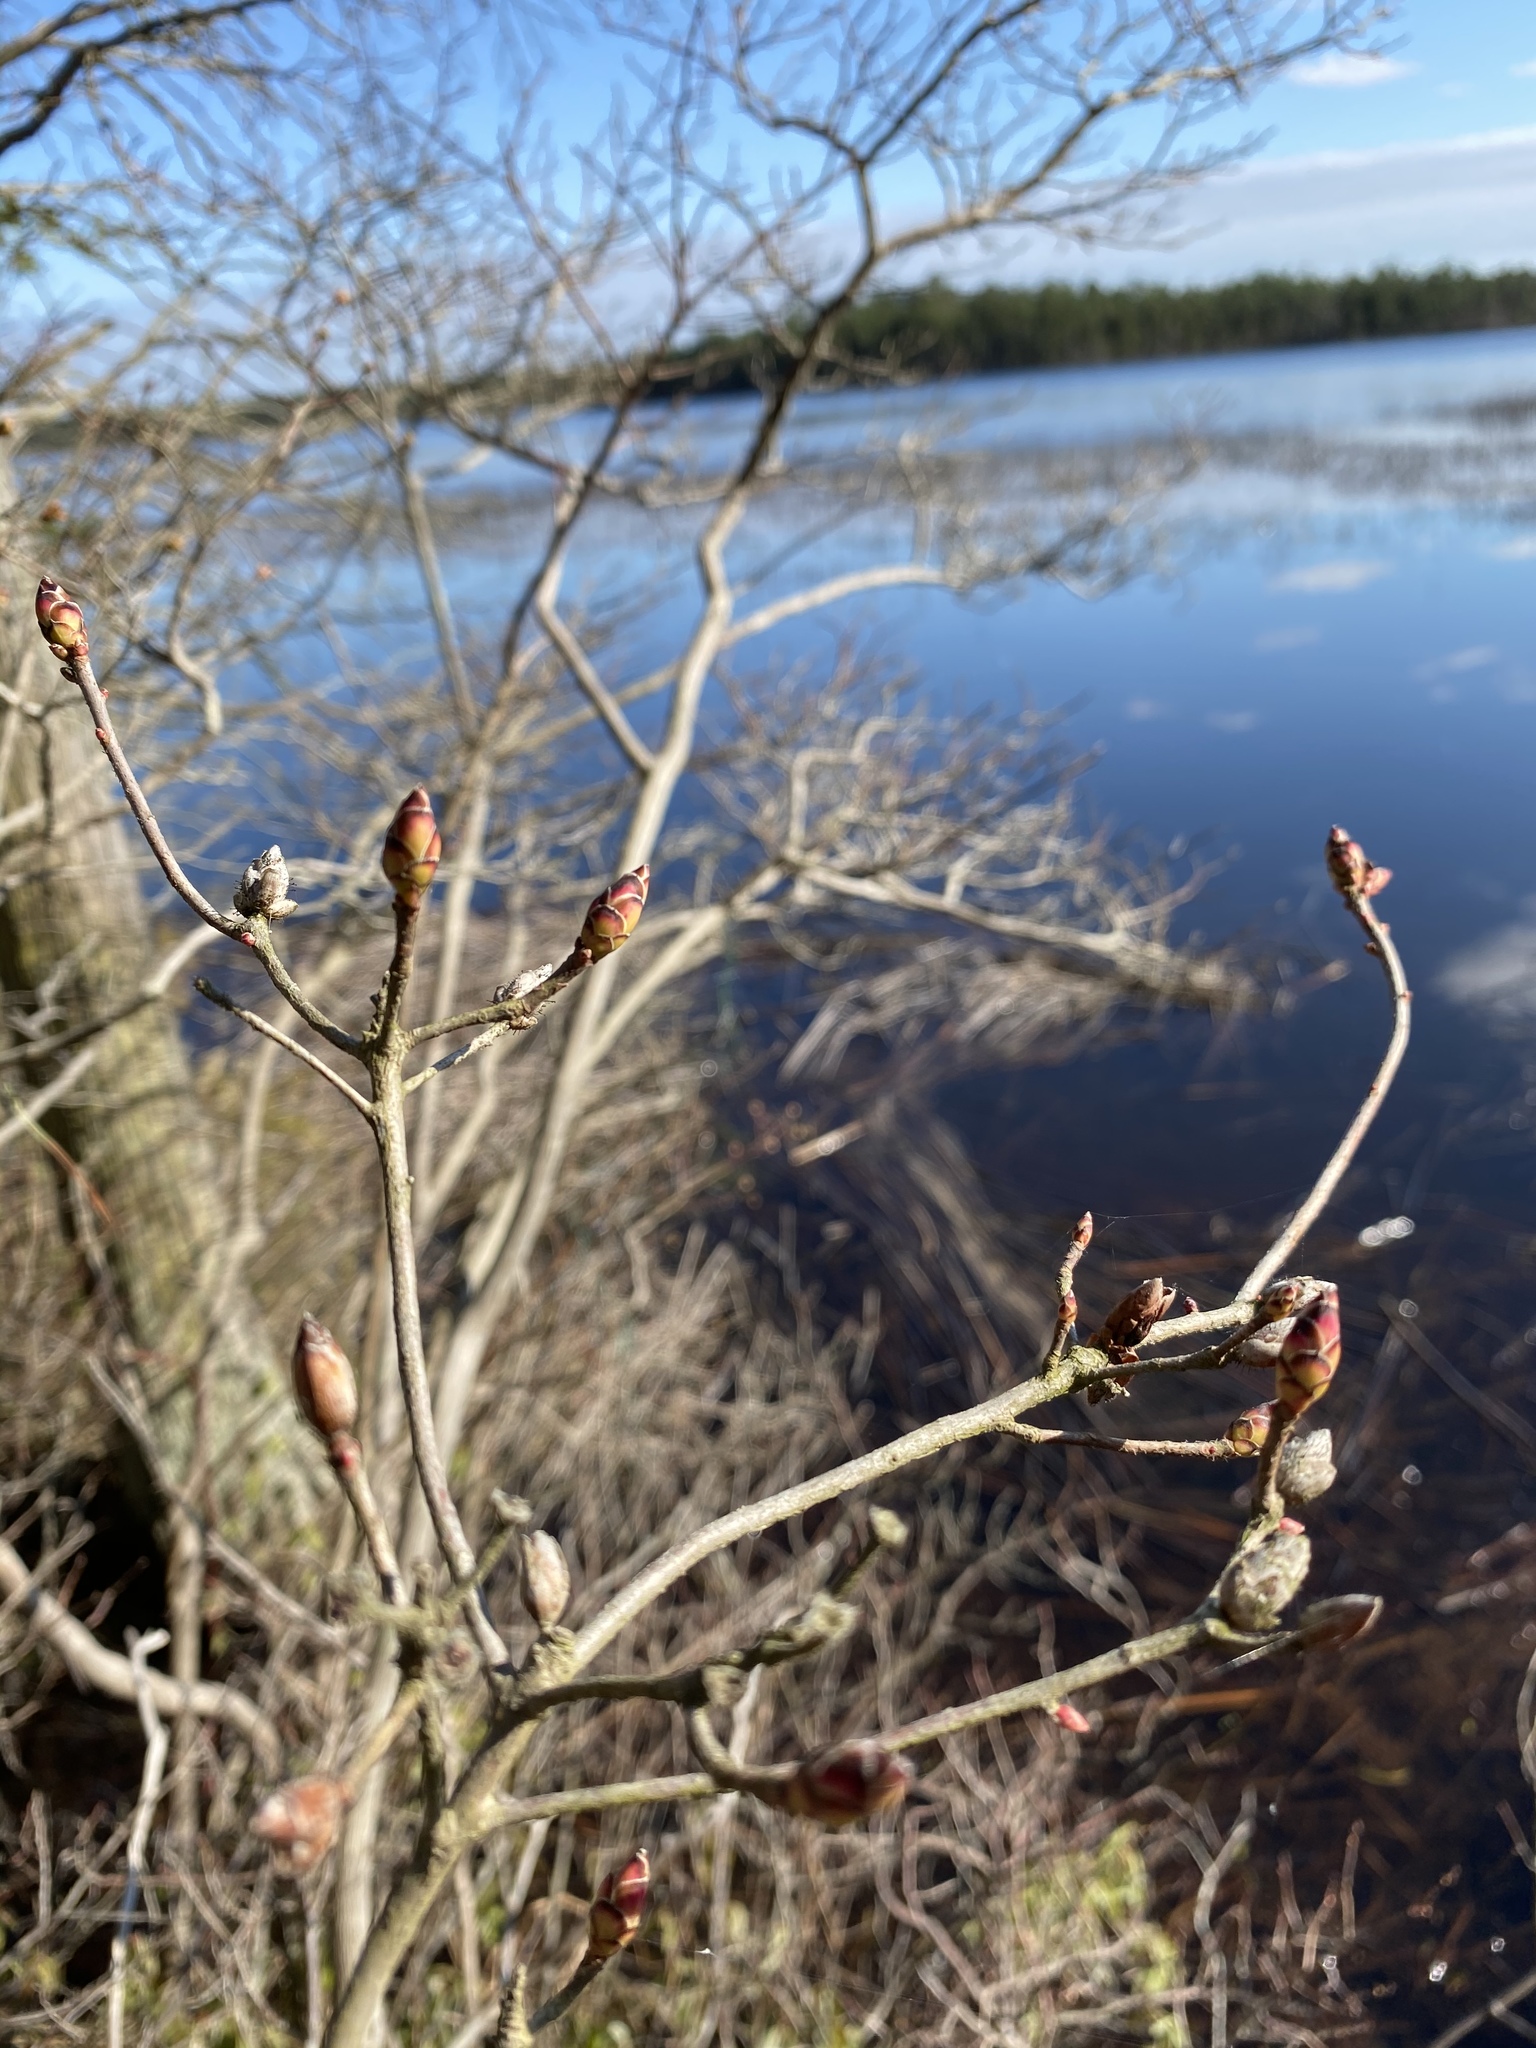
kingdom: Plantae
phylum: Tracheophyta
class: Magnoliopsida
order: Ericales
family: Ericaceae
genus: Rhododendron
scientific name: Rhododendron viscosum
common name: Clammy azalea
